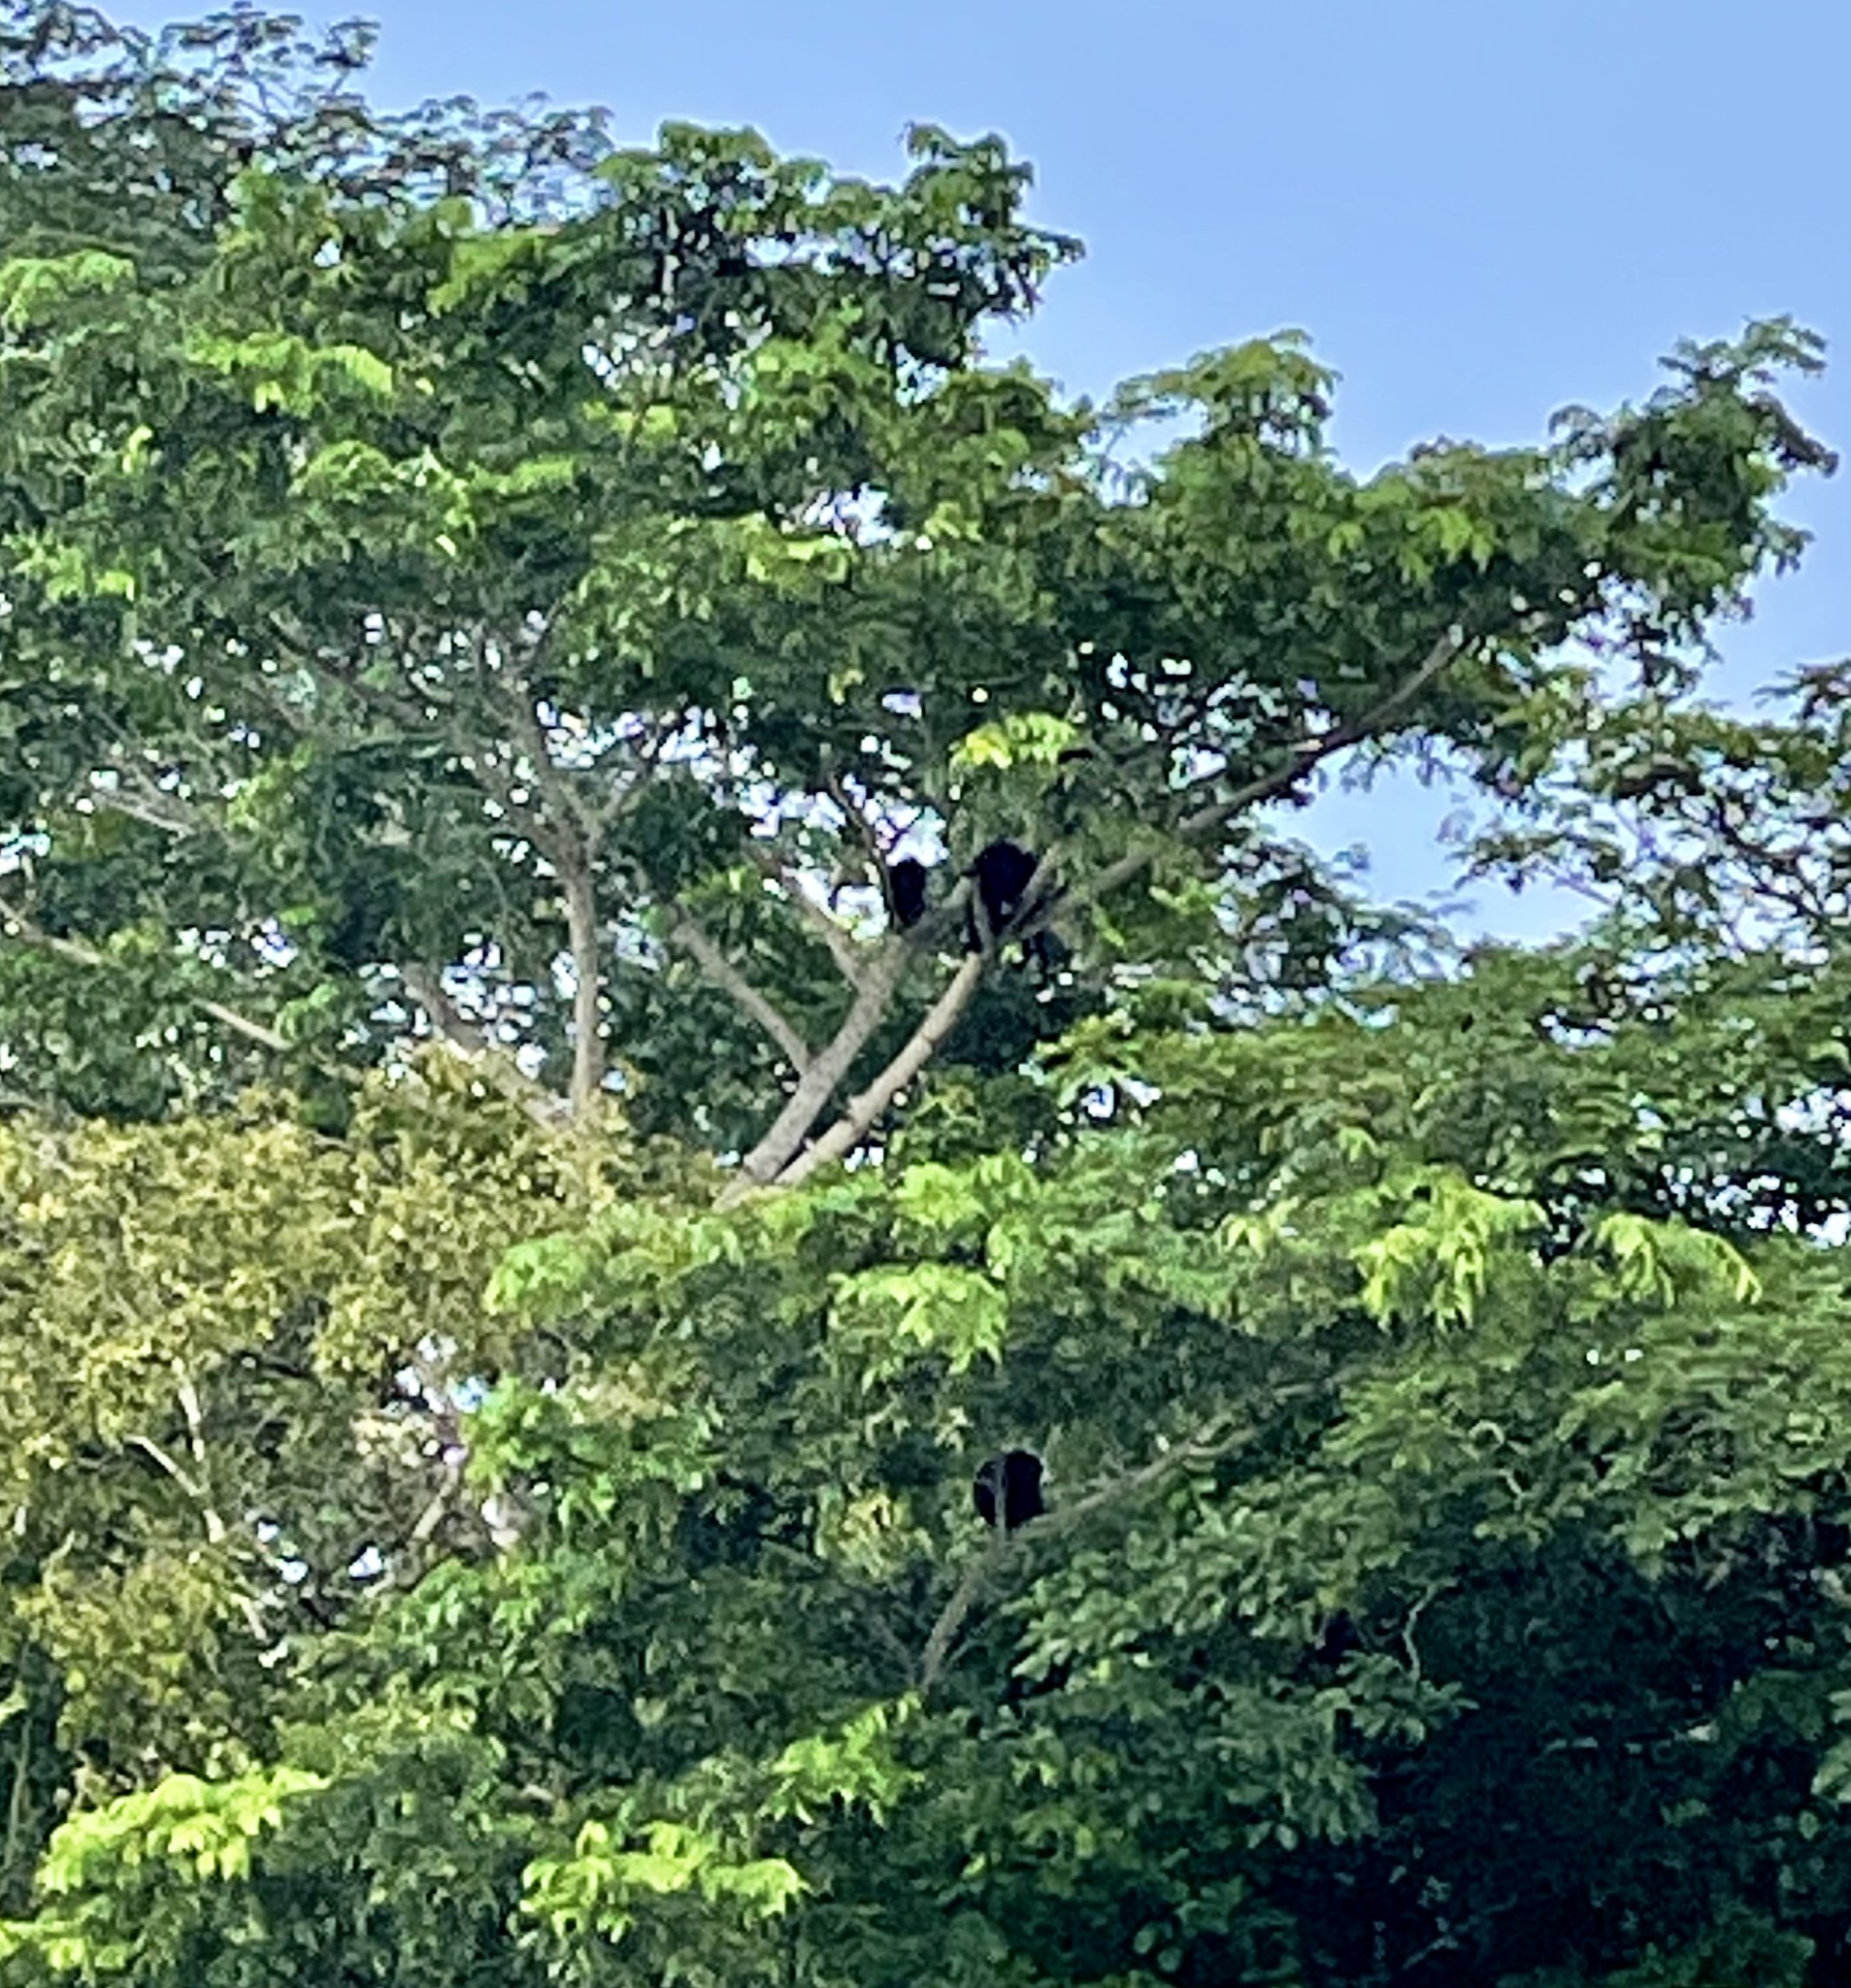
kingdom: Animalia
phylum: Chordata
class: Mammalia
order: Primates
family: Atelidae
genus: Alouatta
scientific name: Alouatta palliata
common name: Mantled howler
